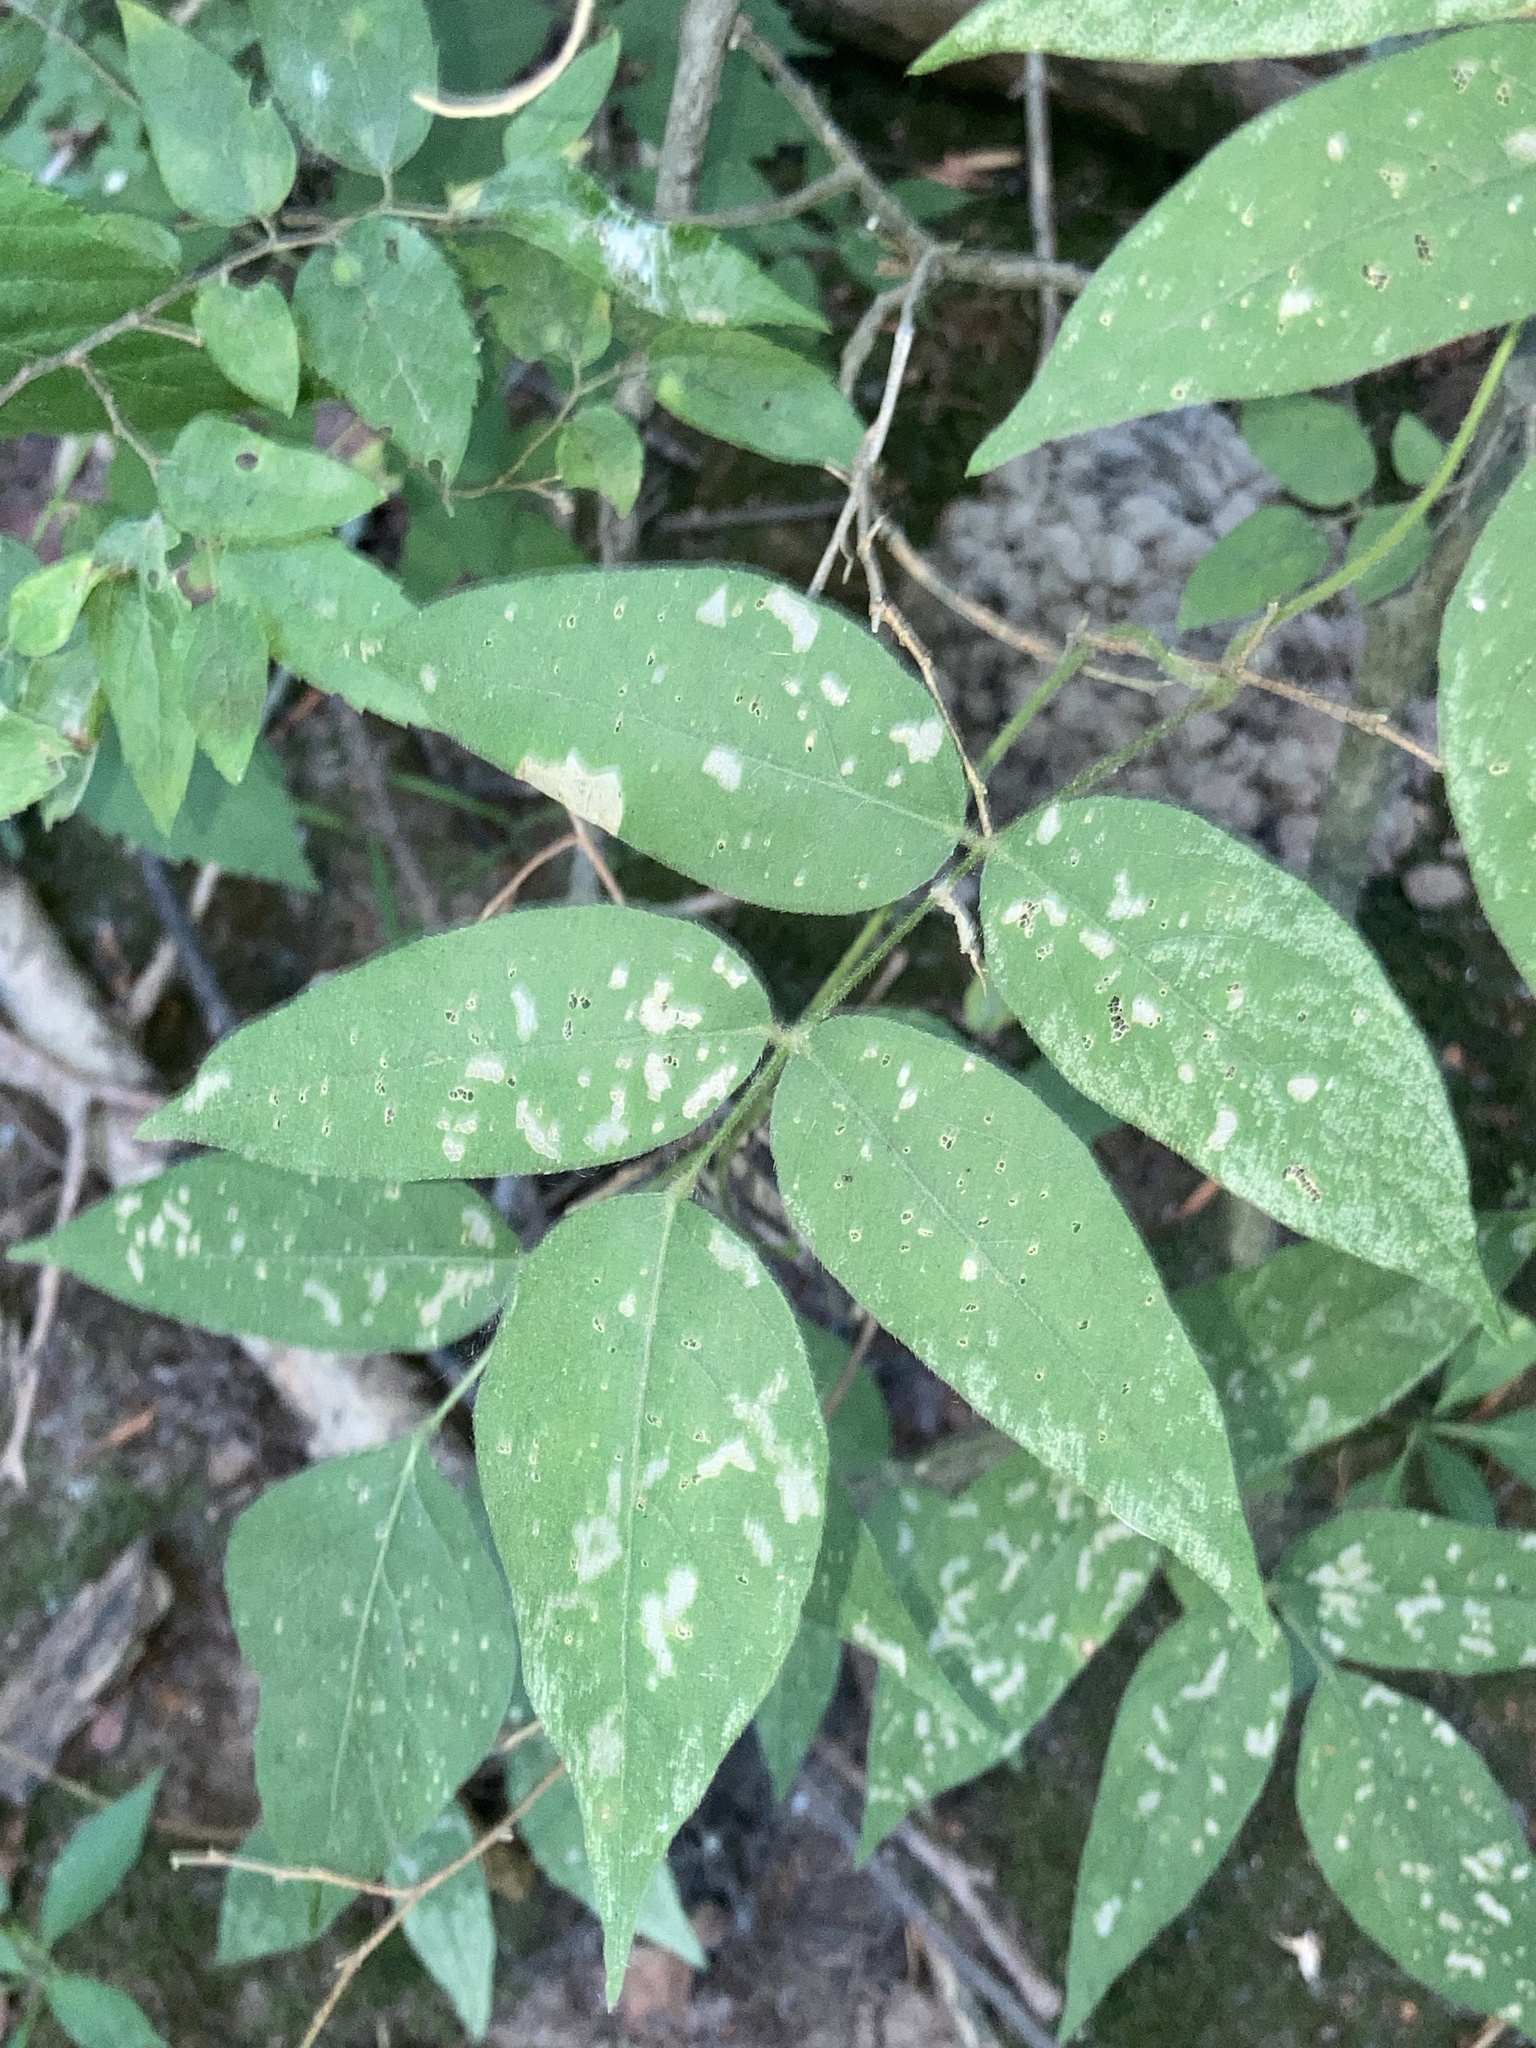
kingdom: Plantae
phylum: Tracheophyta
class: Magnoliopsida
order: Fabales
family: Fabaceae
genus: Apios
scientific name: Apios americana
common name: American potato-bean
